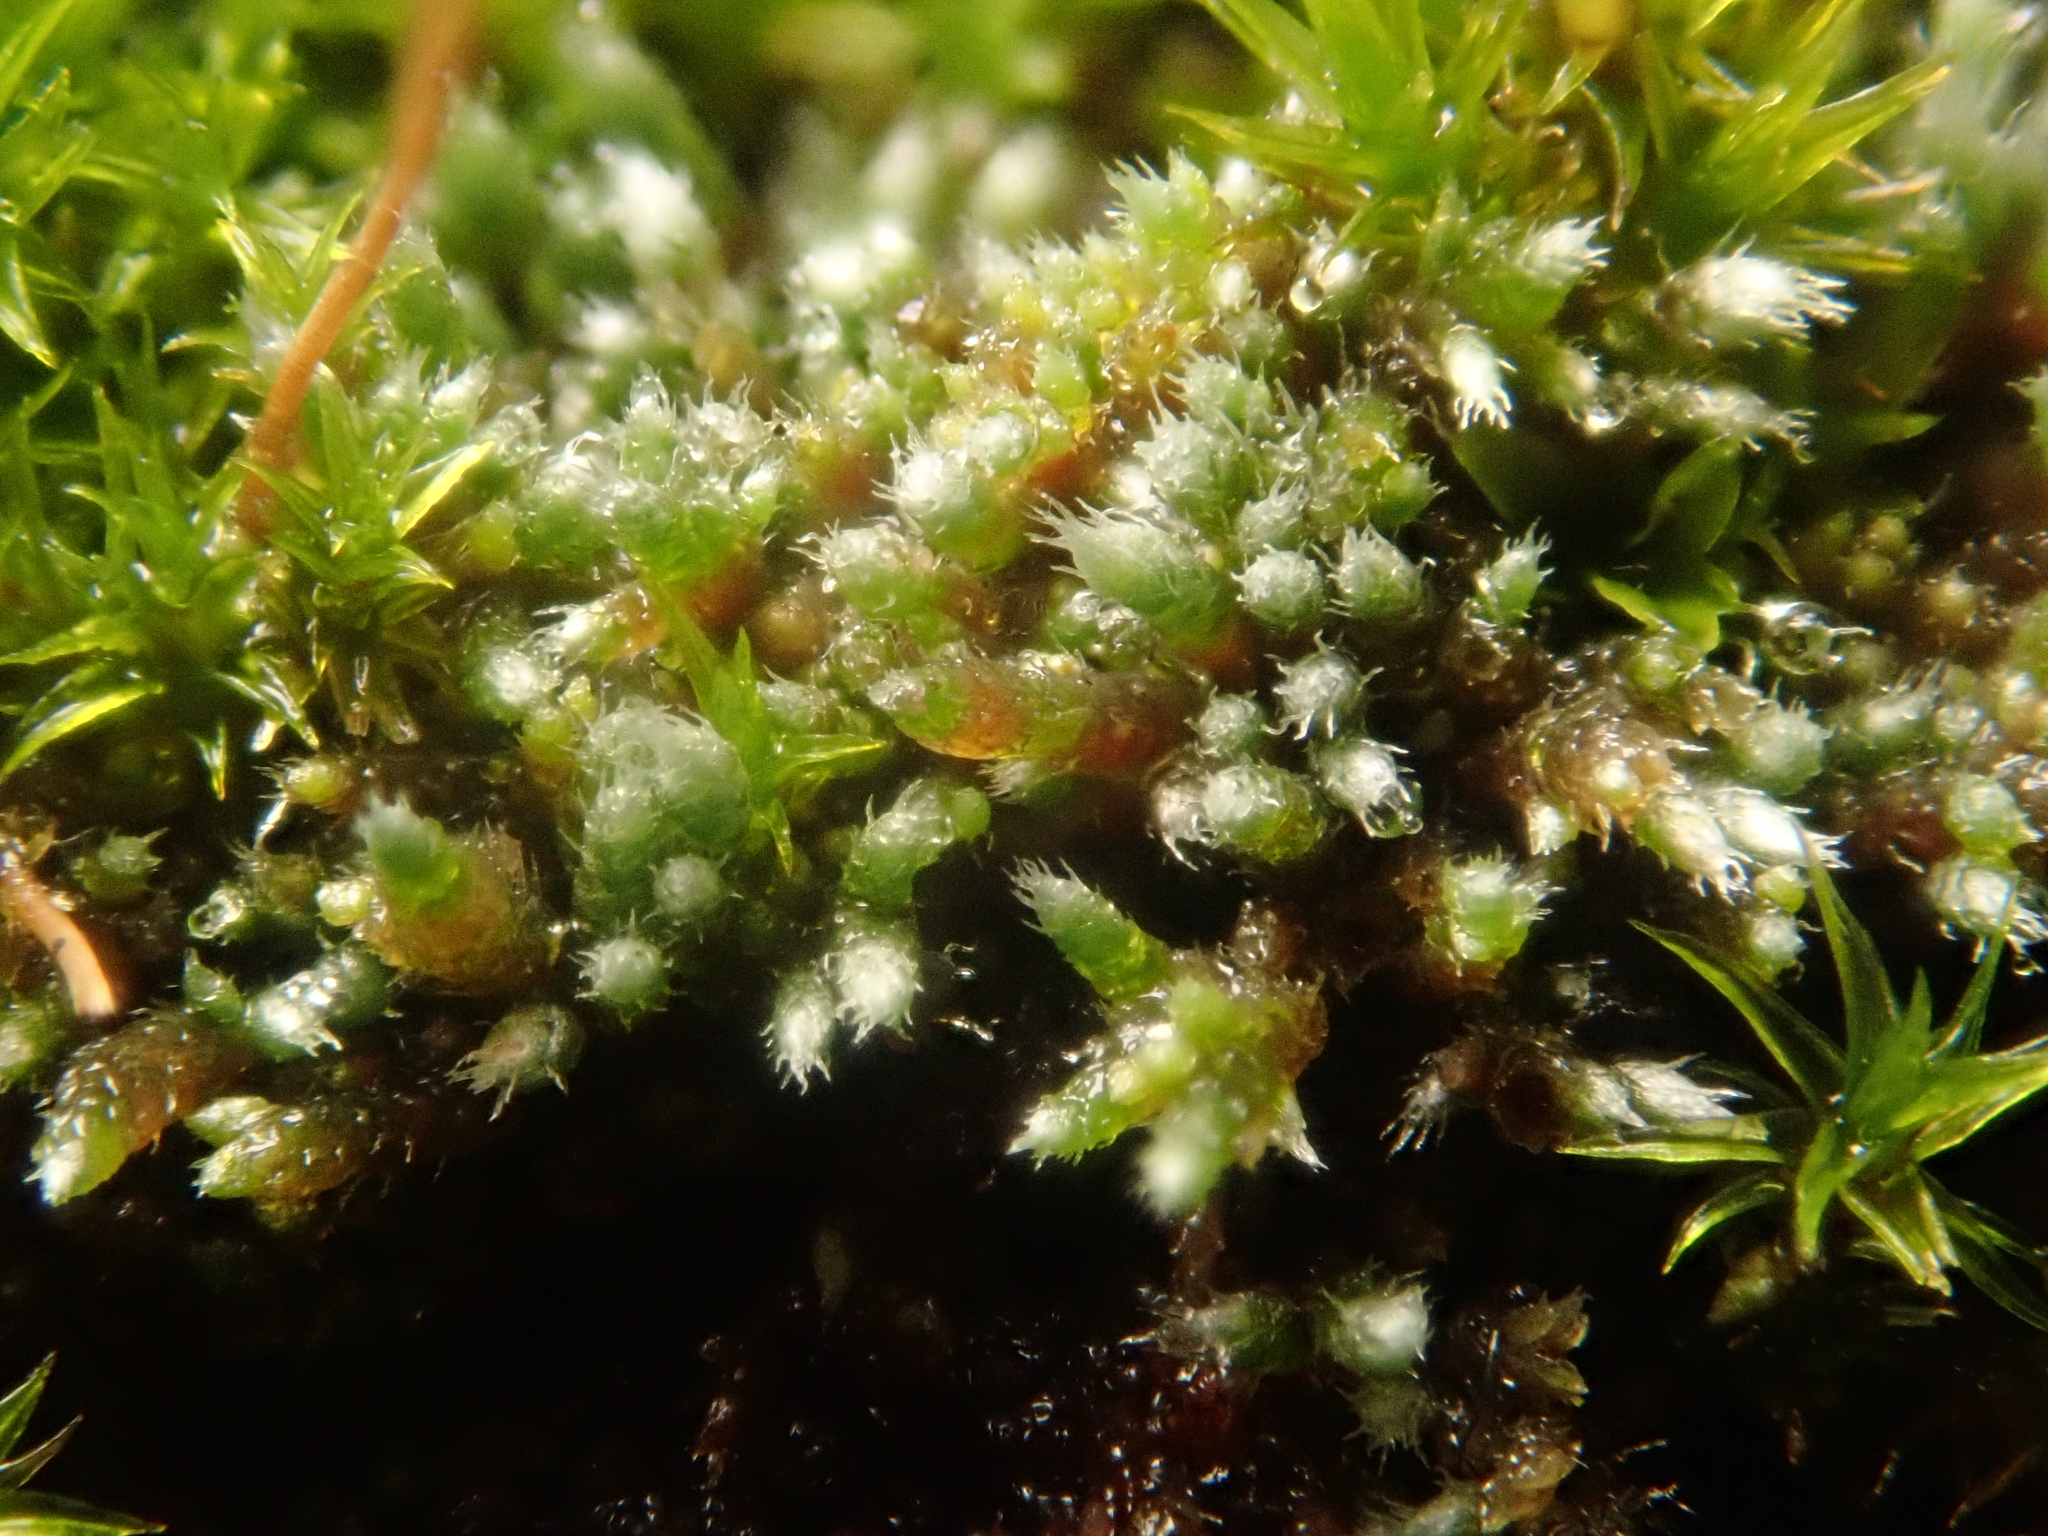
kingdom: Plantae
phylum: Bryophyta
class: Bryopsida
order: Bryales
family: Bryaceae
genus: Bryum
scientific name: Bryum argenteum
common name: Silver-moss
